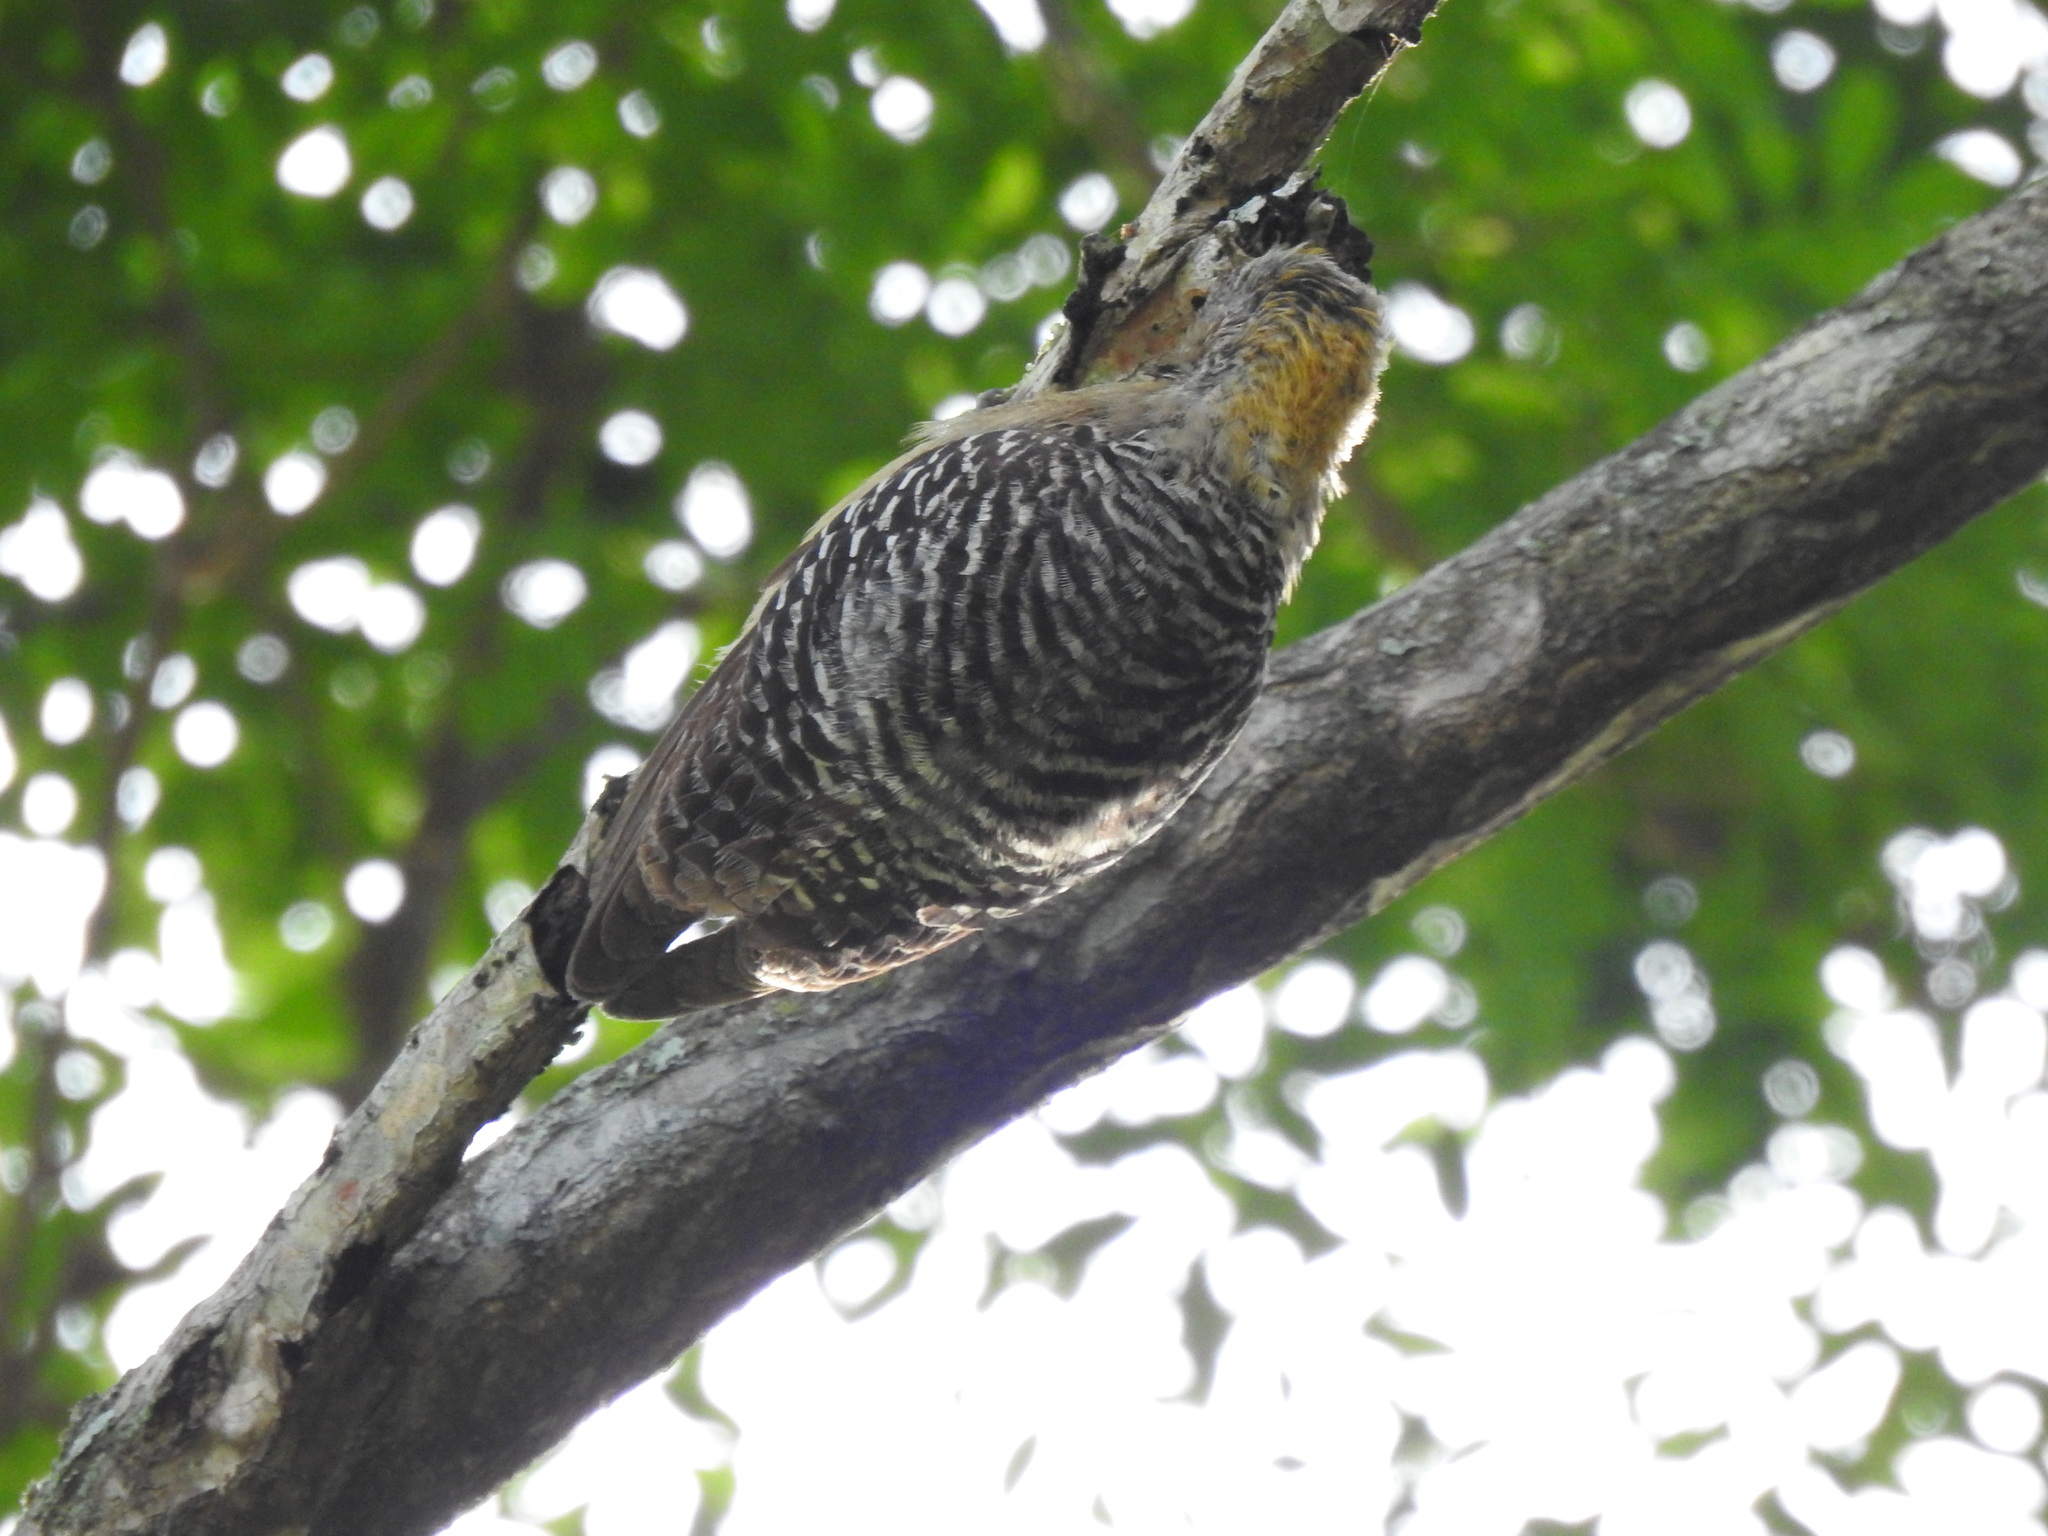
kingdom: Animalia
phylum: Chordata
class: Aves
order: Piciformes
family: Picidae
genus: Melanerpes
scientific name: Melanerpes hoffmannii
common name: Hoffmann's woodpecker
